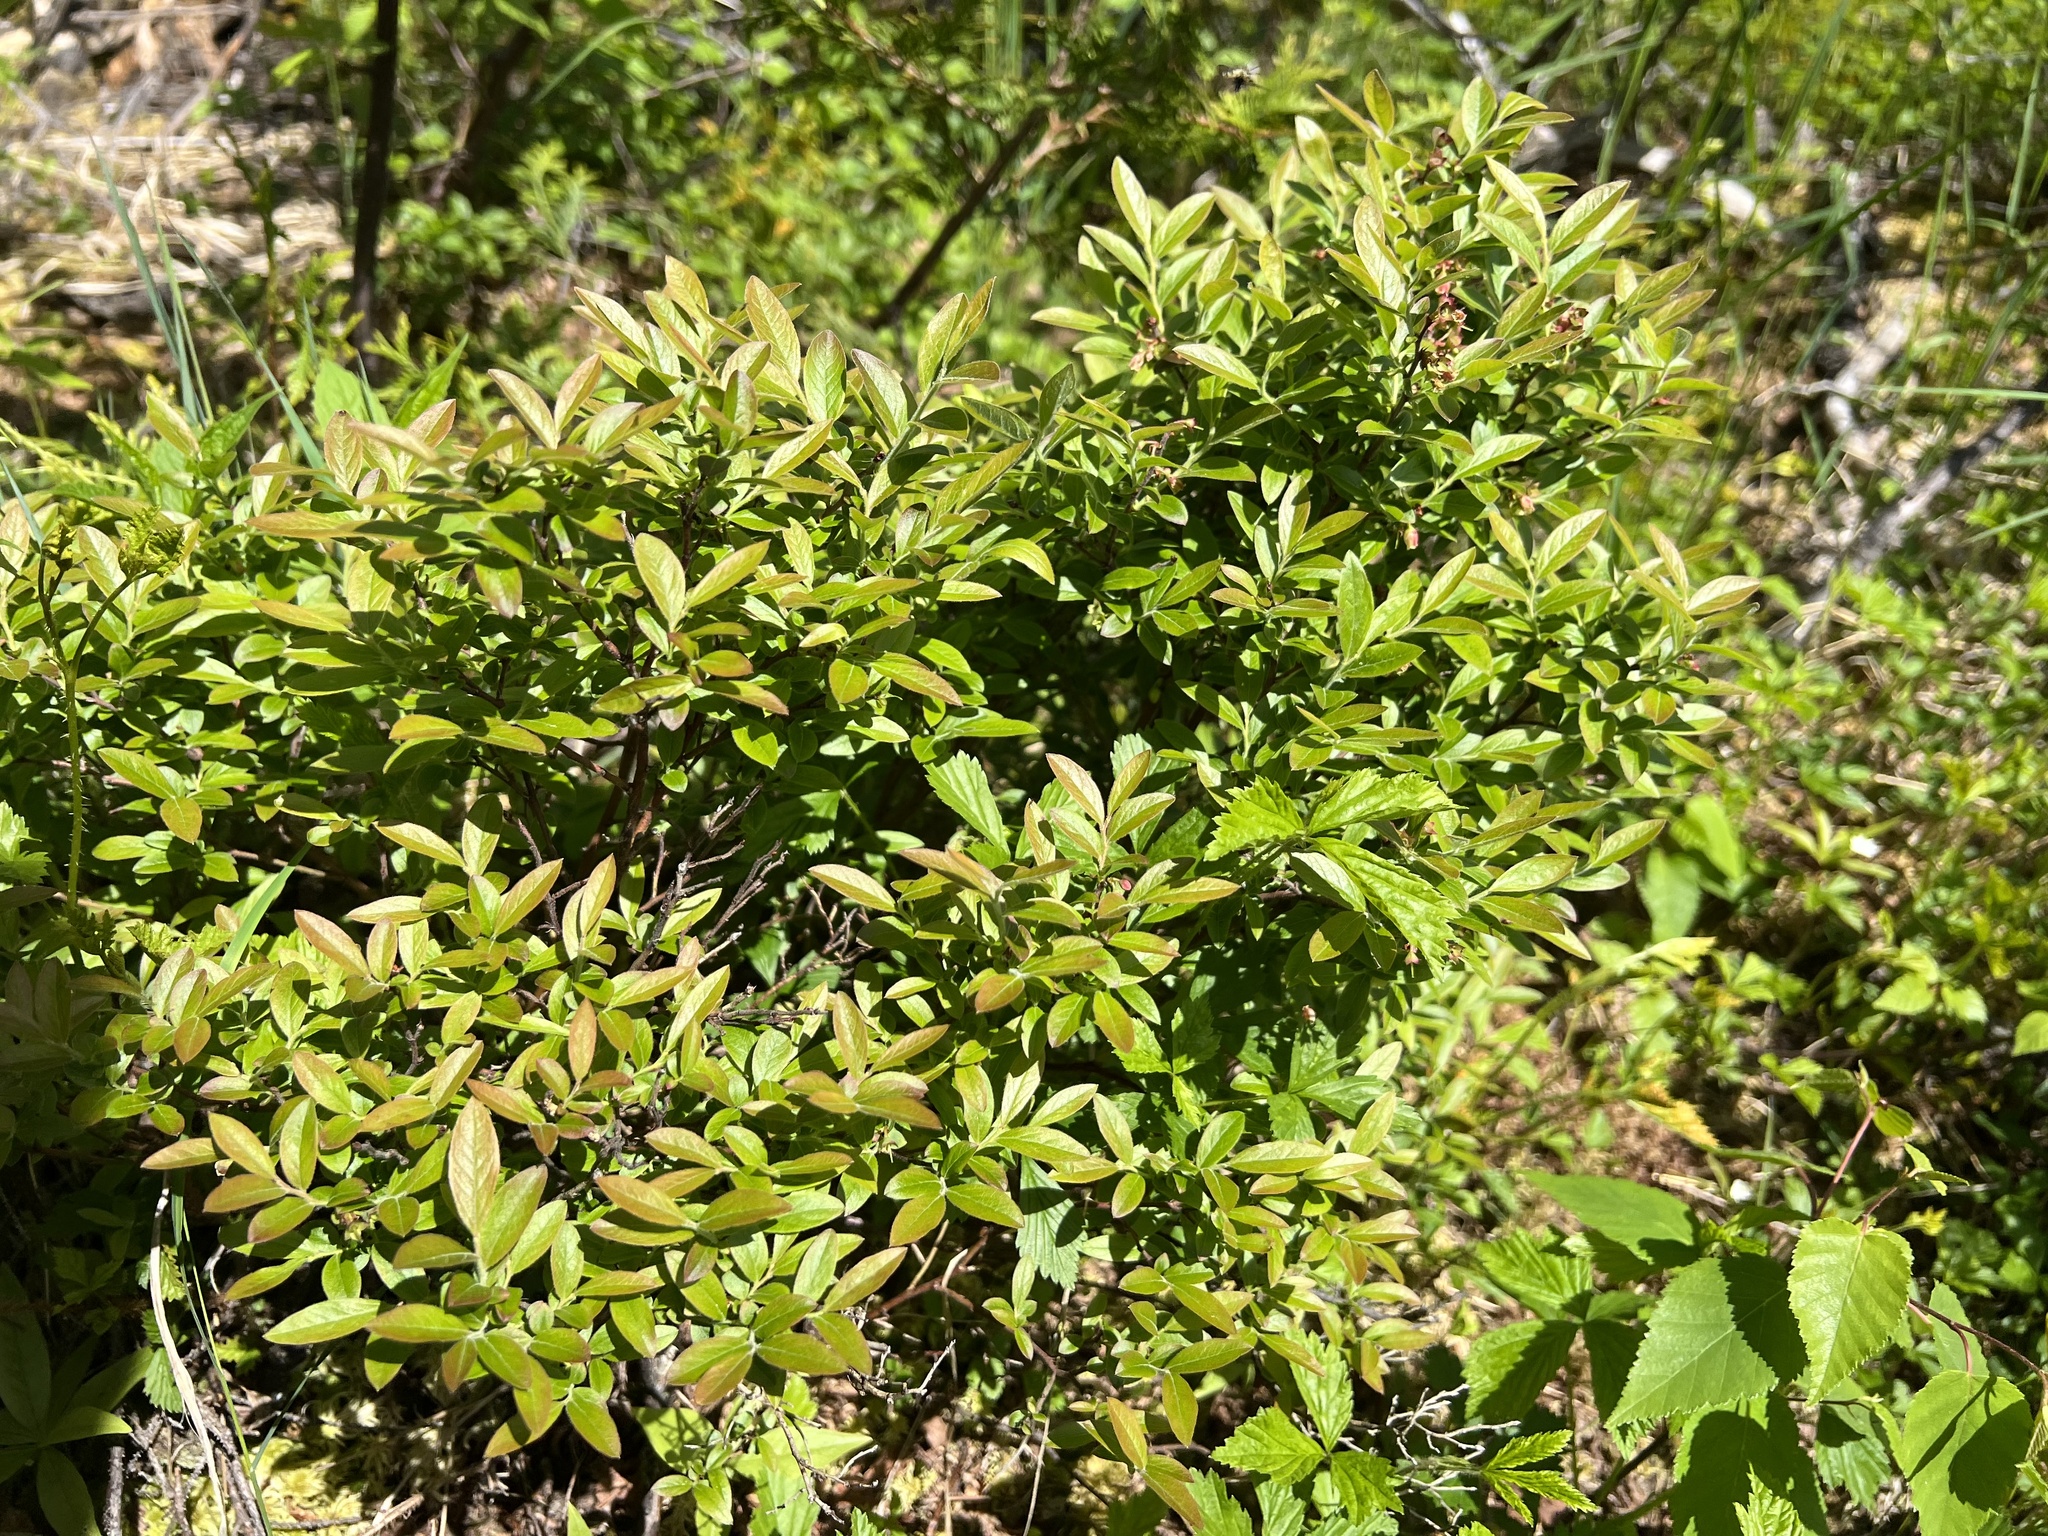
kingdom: Plantae
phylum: Tracheophyta
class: Magnoliopsida
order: Ericales
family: Ericaceae
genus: Vaccinium
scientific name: Vaccinium myrtilloides
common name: Canada blueberry
